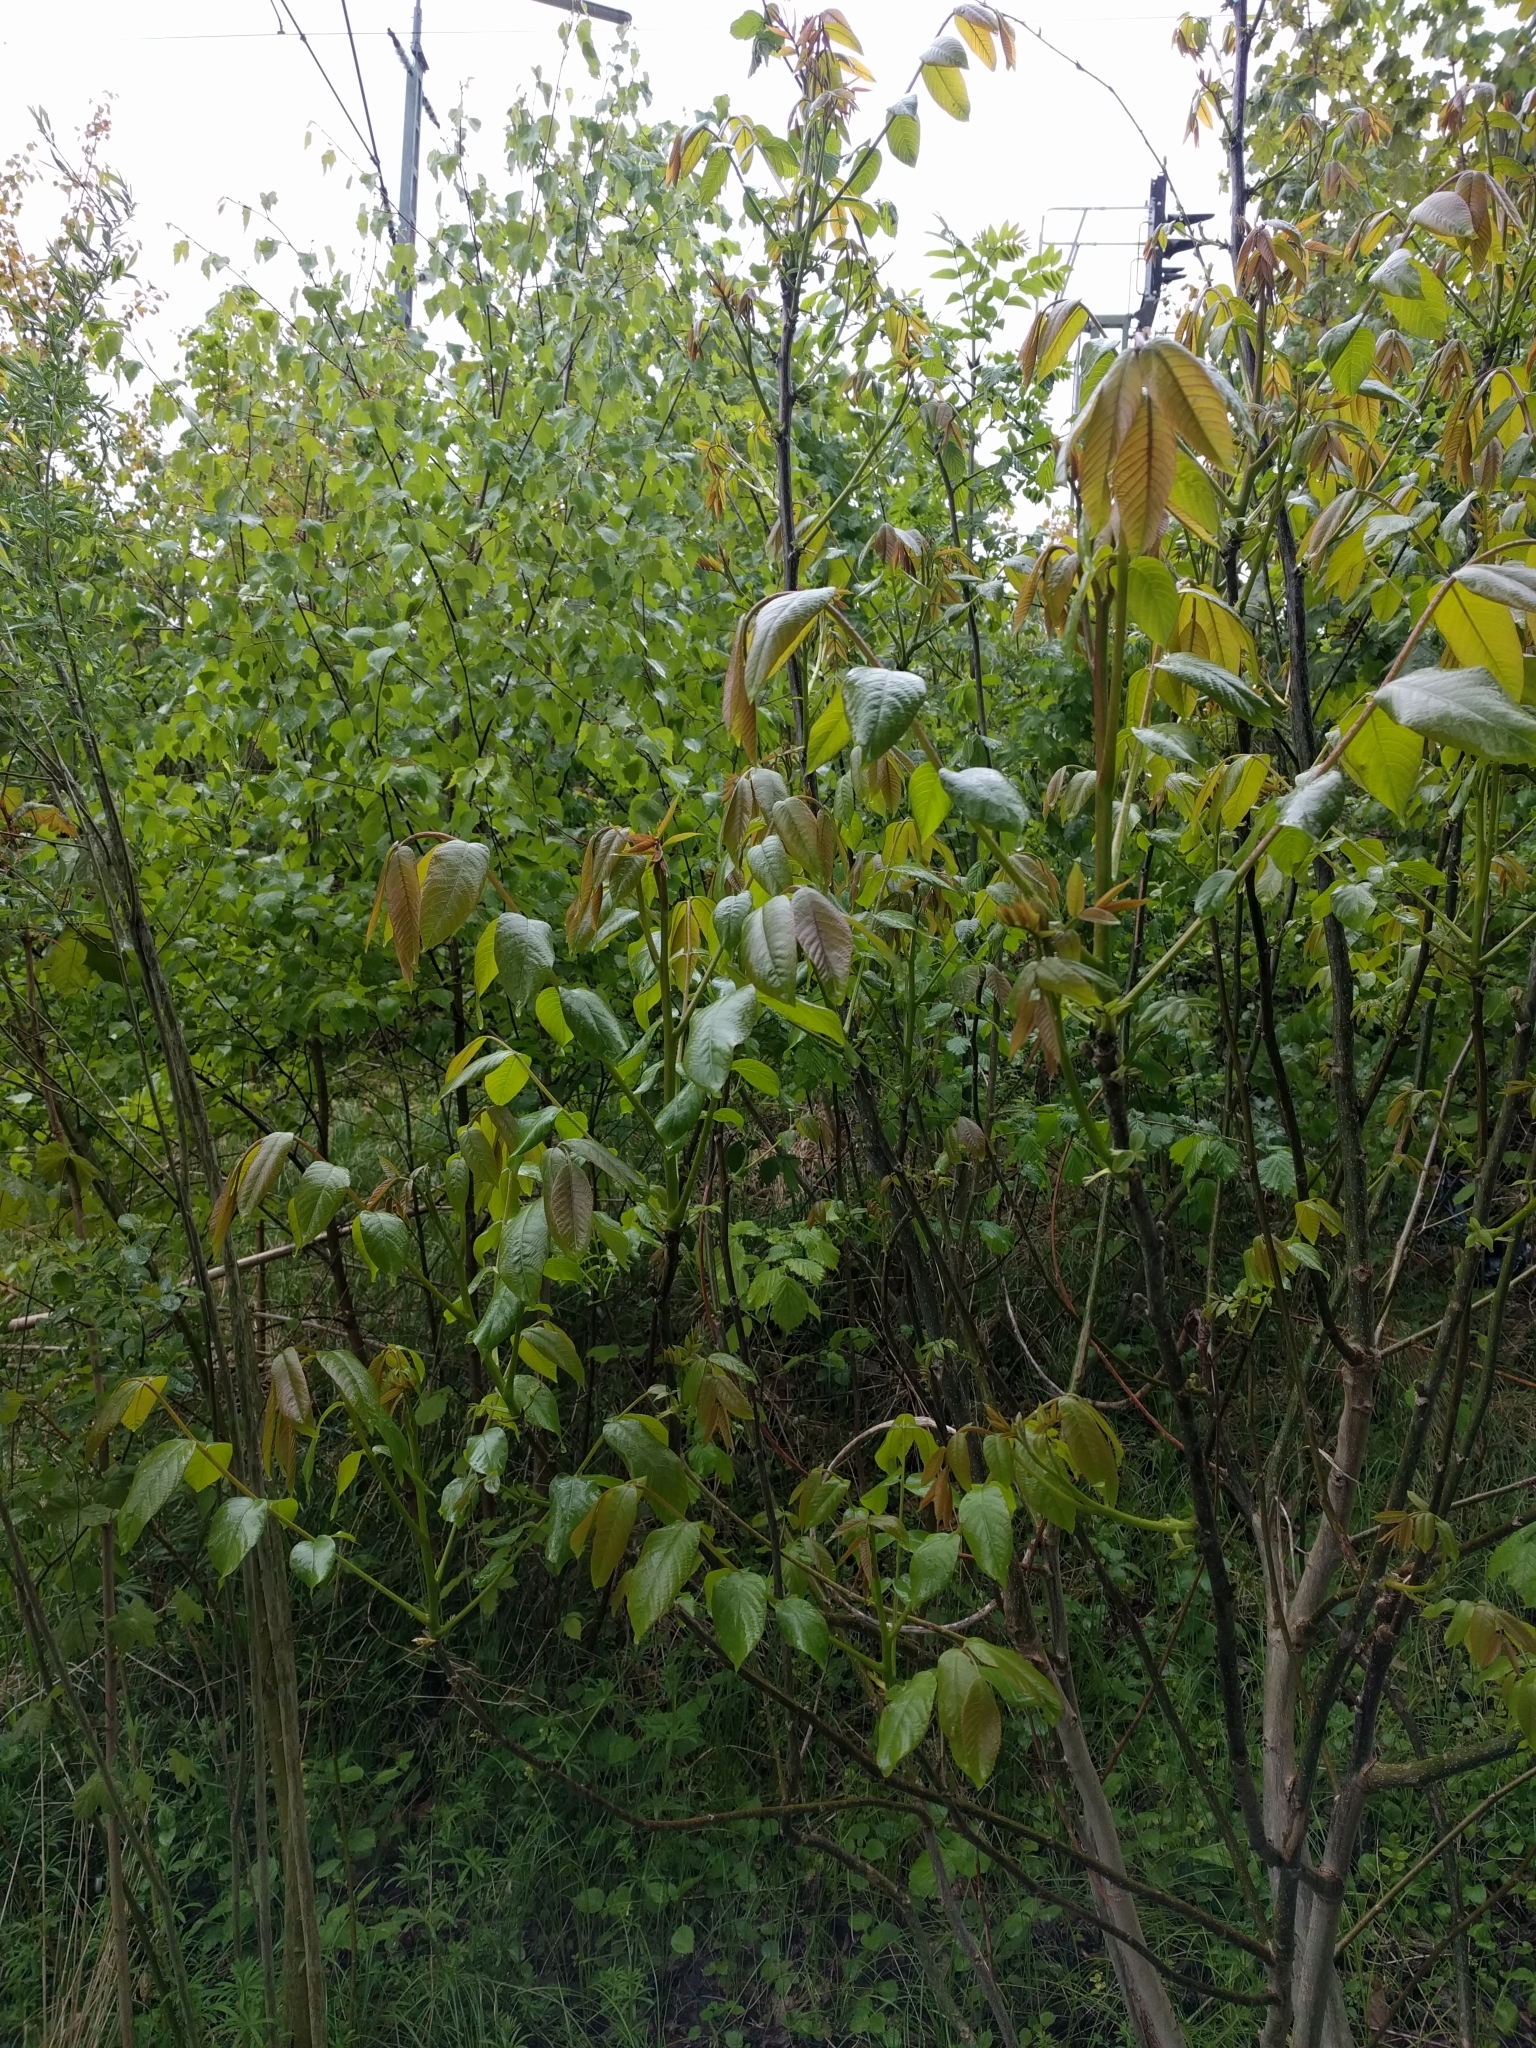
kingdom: Plantae
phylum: Tracheophyta
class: Magnoliopsida
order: Fagales
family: Juglandaceae
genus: Juglans
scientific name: Juglans regia
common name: Walnut
